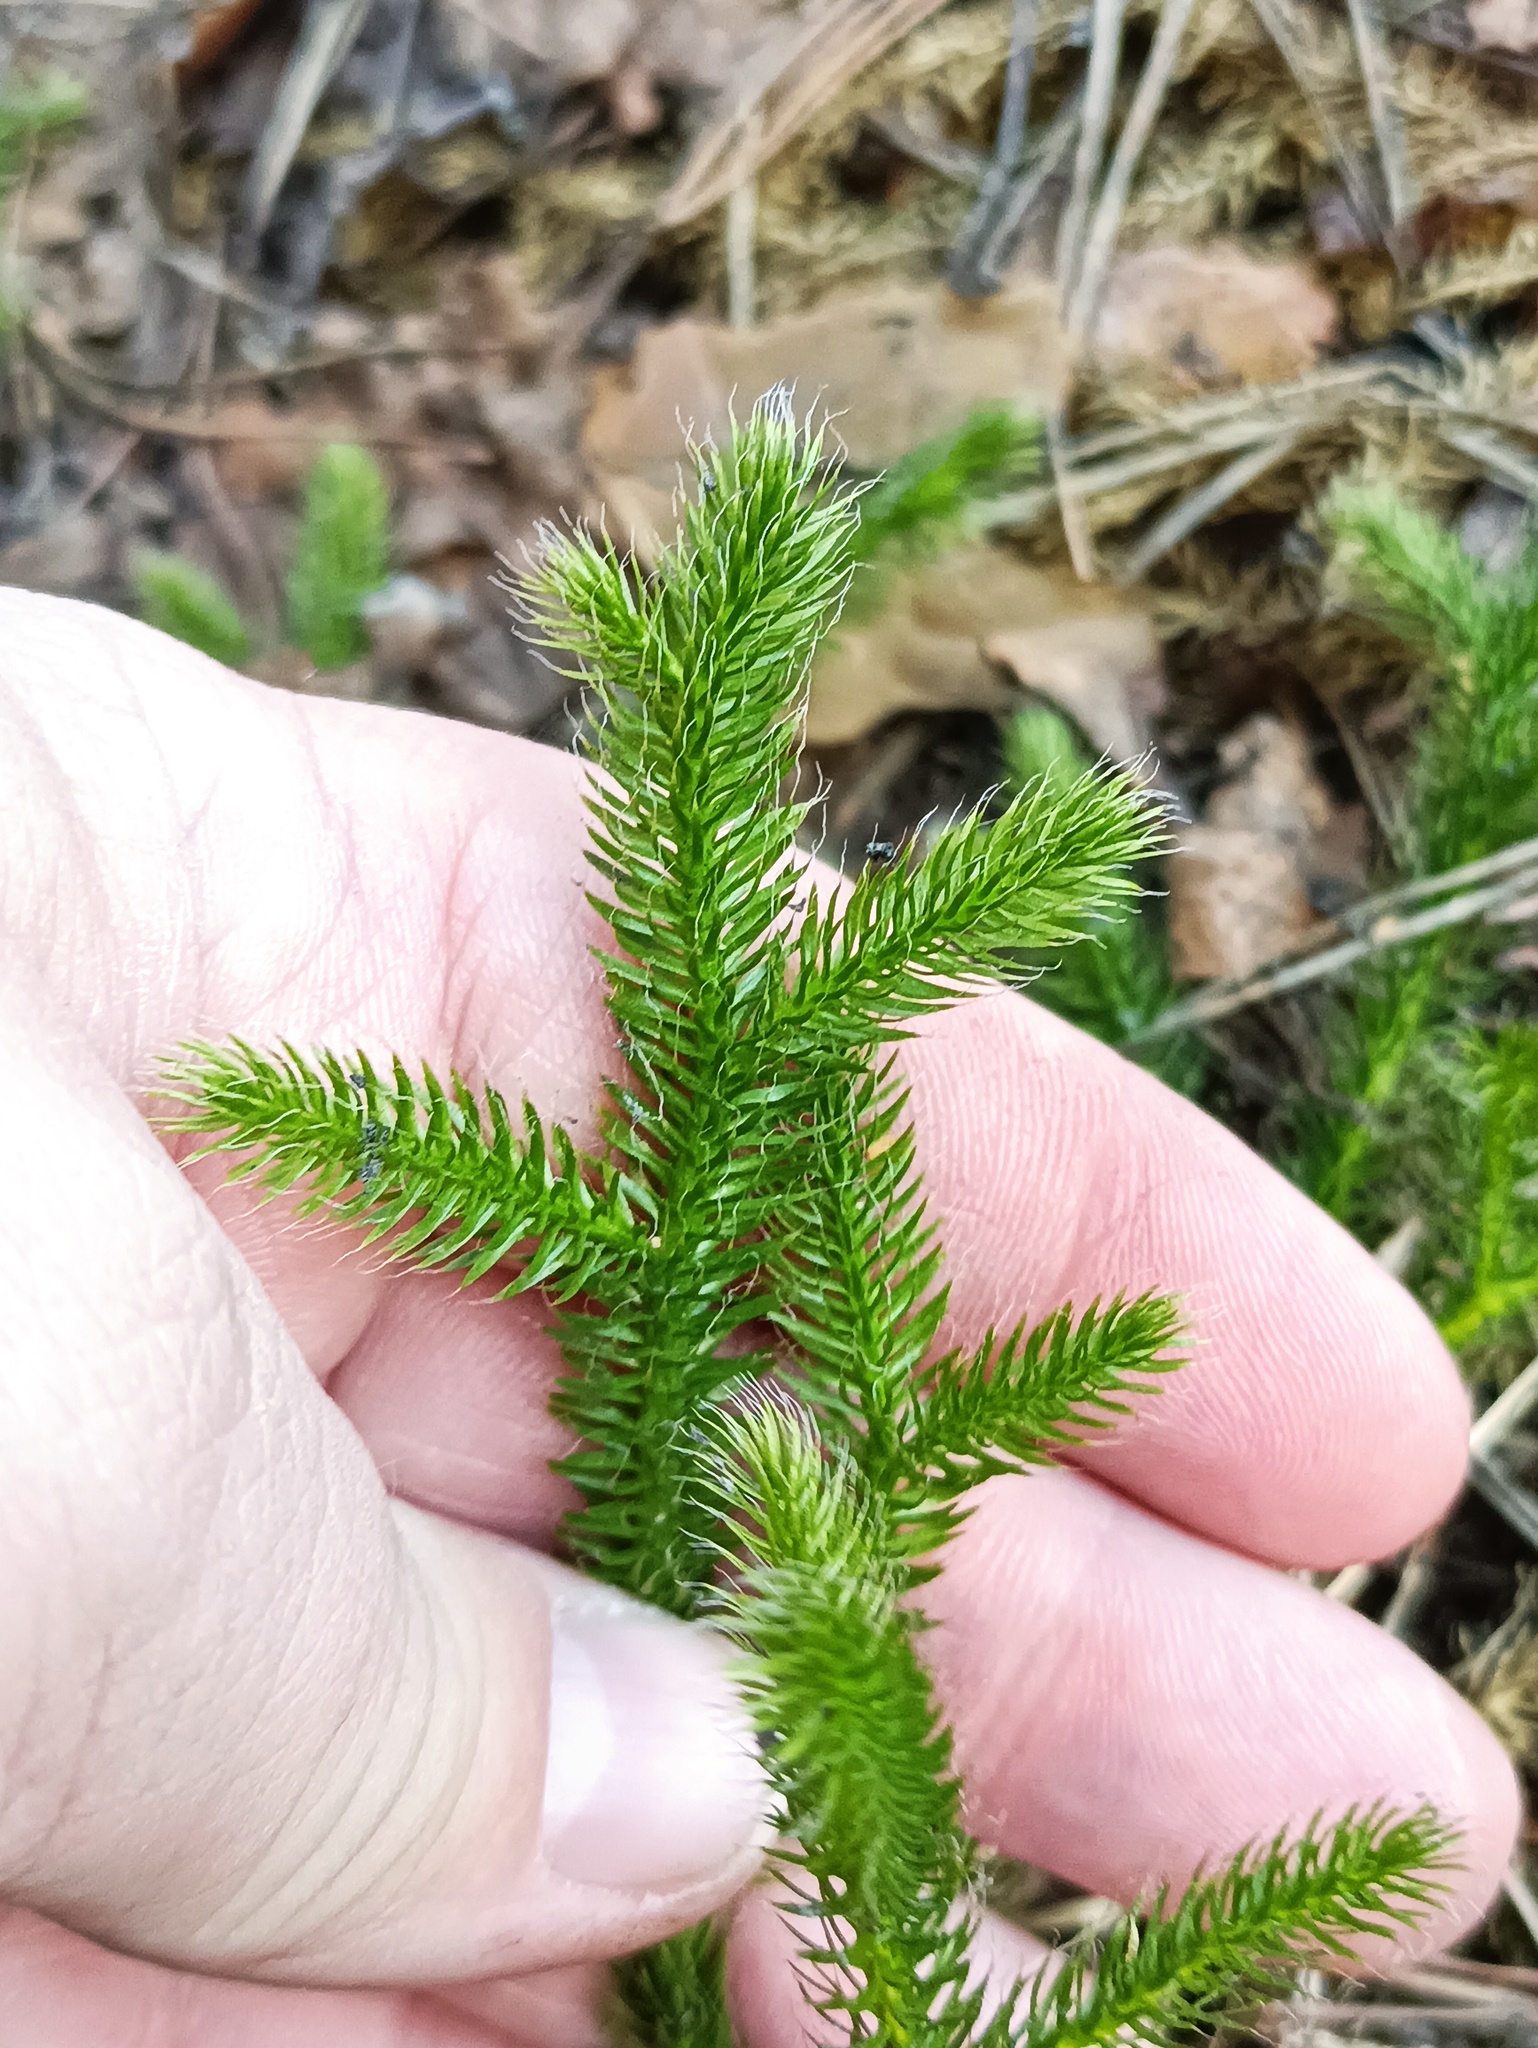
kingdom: Plantae
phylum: Tracheophyta
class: Lycopodiopsida
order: Lycopodiales
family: Lycopodiaceae
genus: Lycopodium
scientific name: Lycopodium clavatum
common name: Stag's-horn clubmoss
